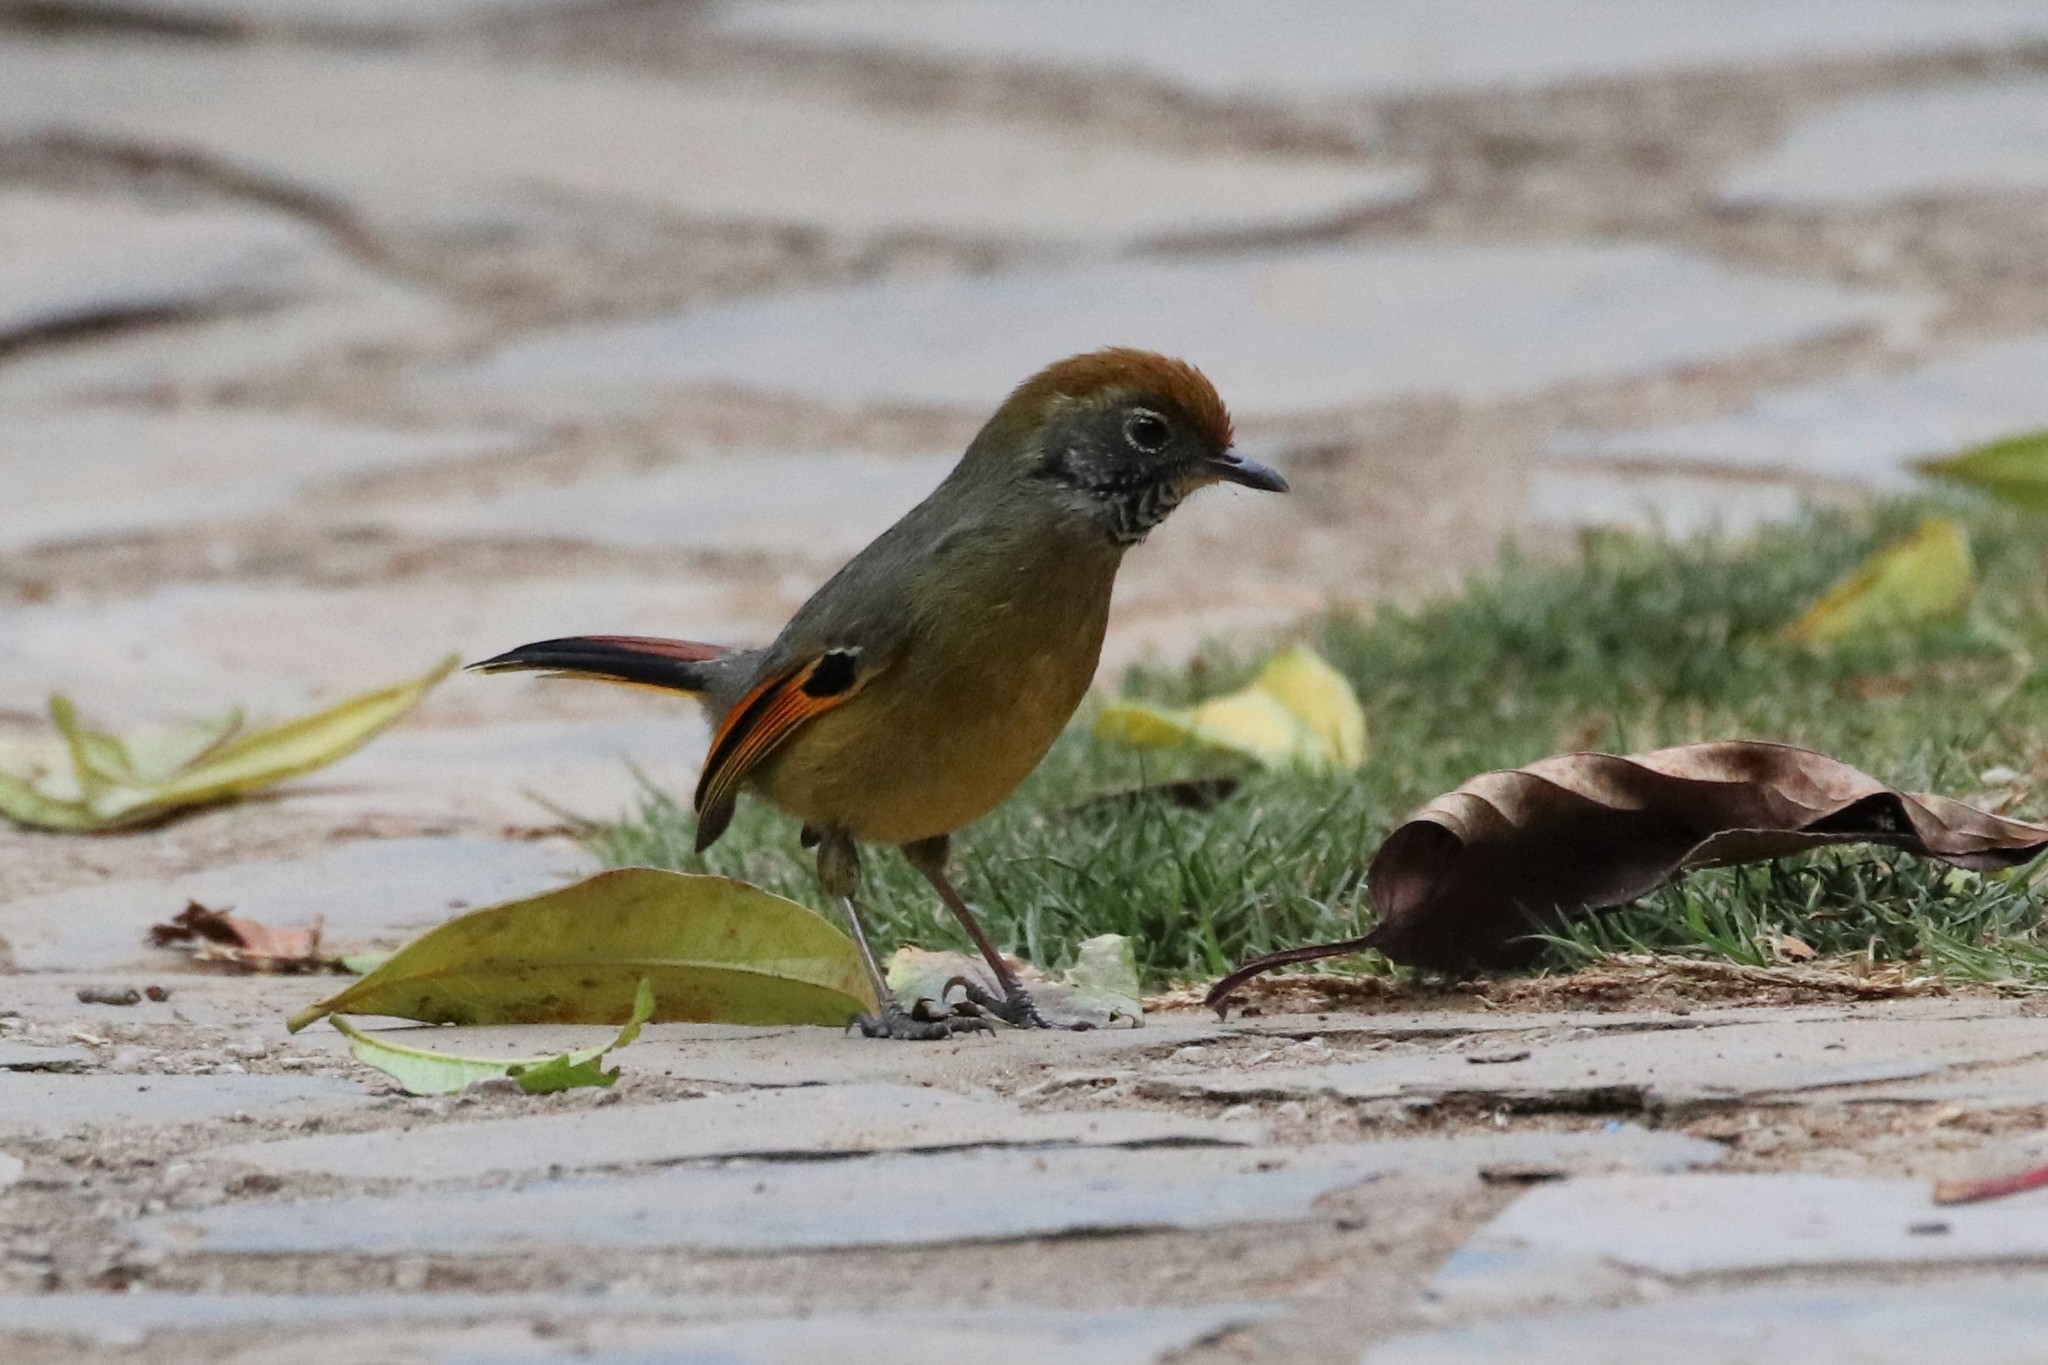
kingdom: Animalia
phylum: Chordata
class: Aves
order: Passeriformes
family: Leiothrichidae
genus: Minla
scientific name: Minla strigula
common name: Chestnut-tailed minla
